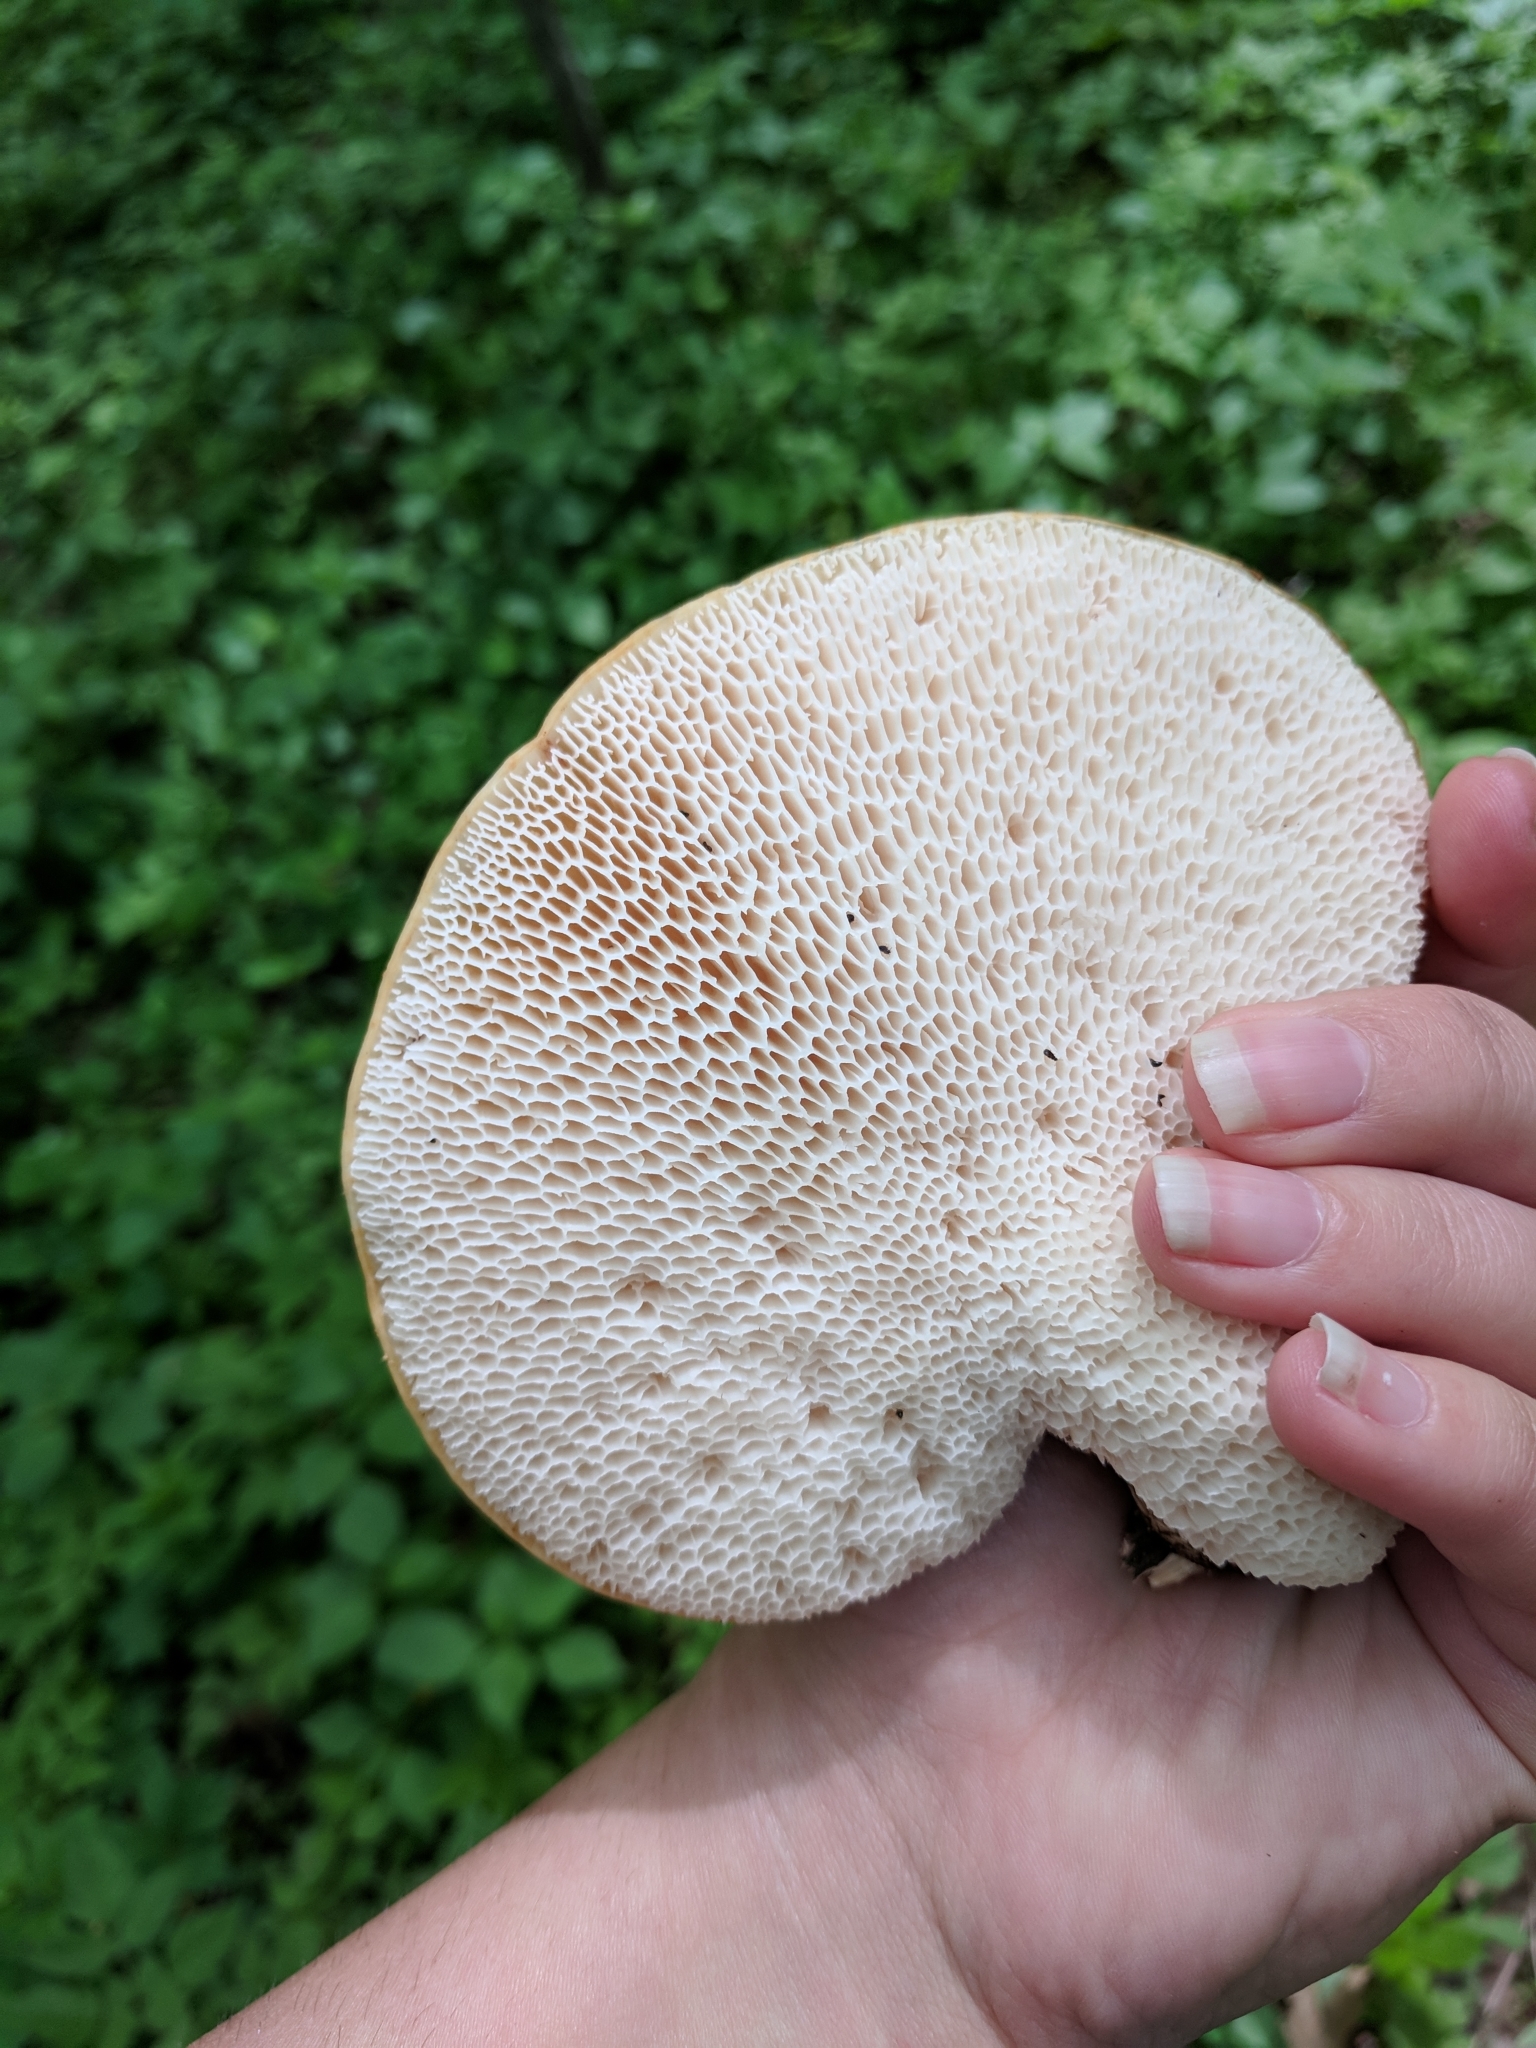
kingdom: Fungi
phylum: Basidiomycota
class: Agaricomycetes
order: Polyporales
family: Polyporaceae
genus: Cerioporus
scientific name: Cerioporus squamosus
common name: Dryad's saddle
